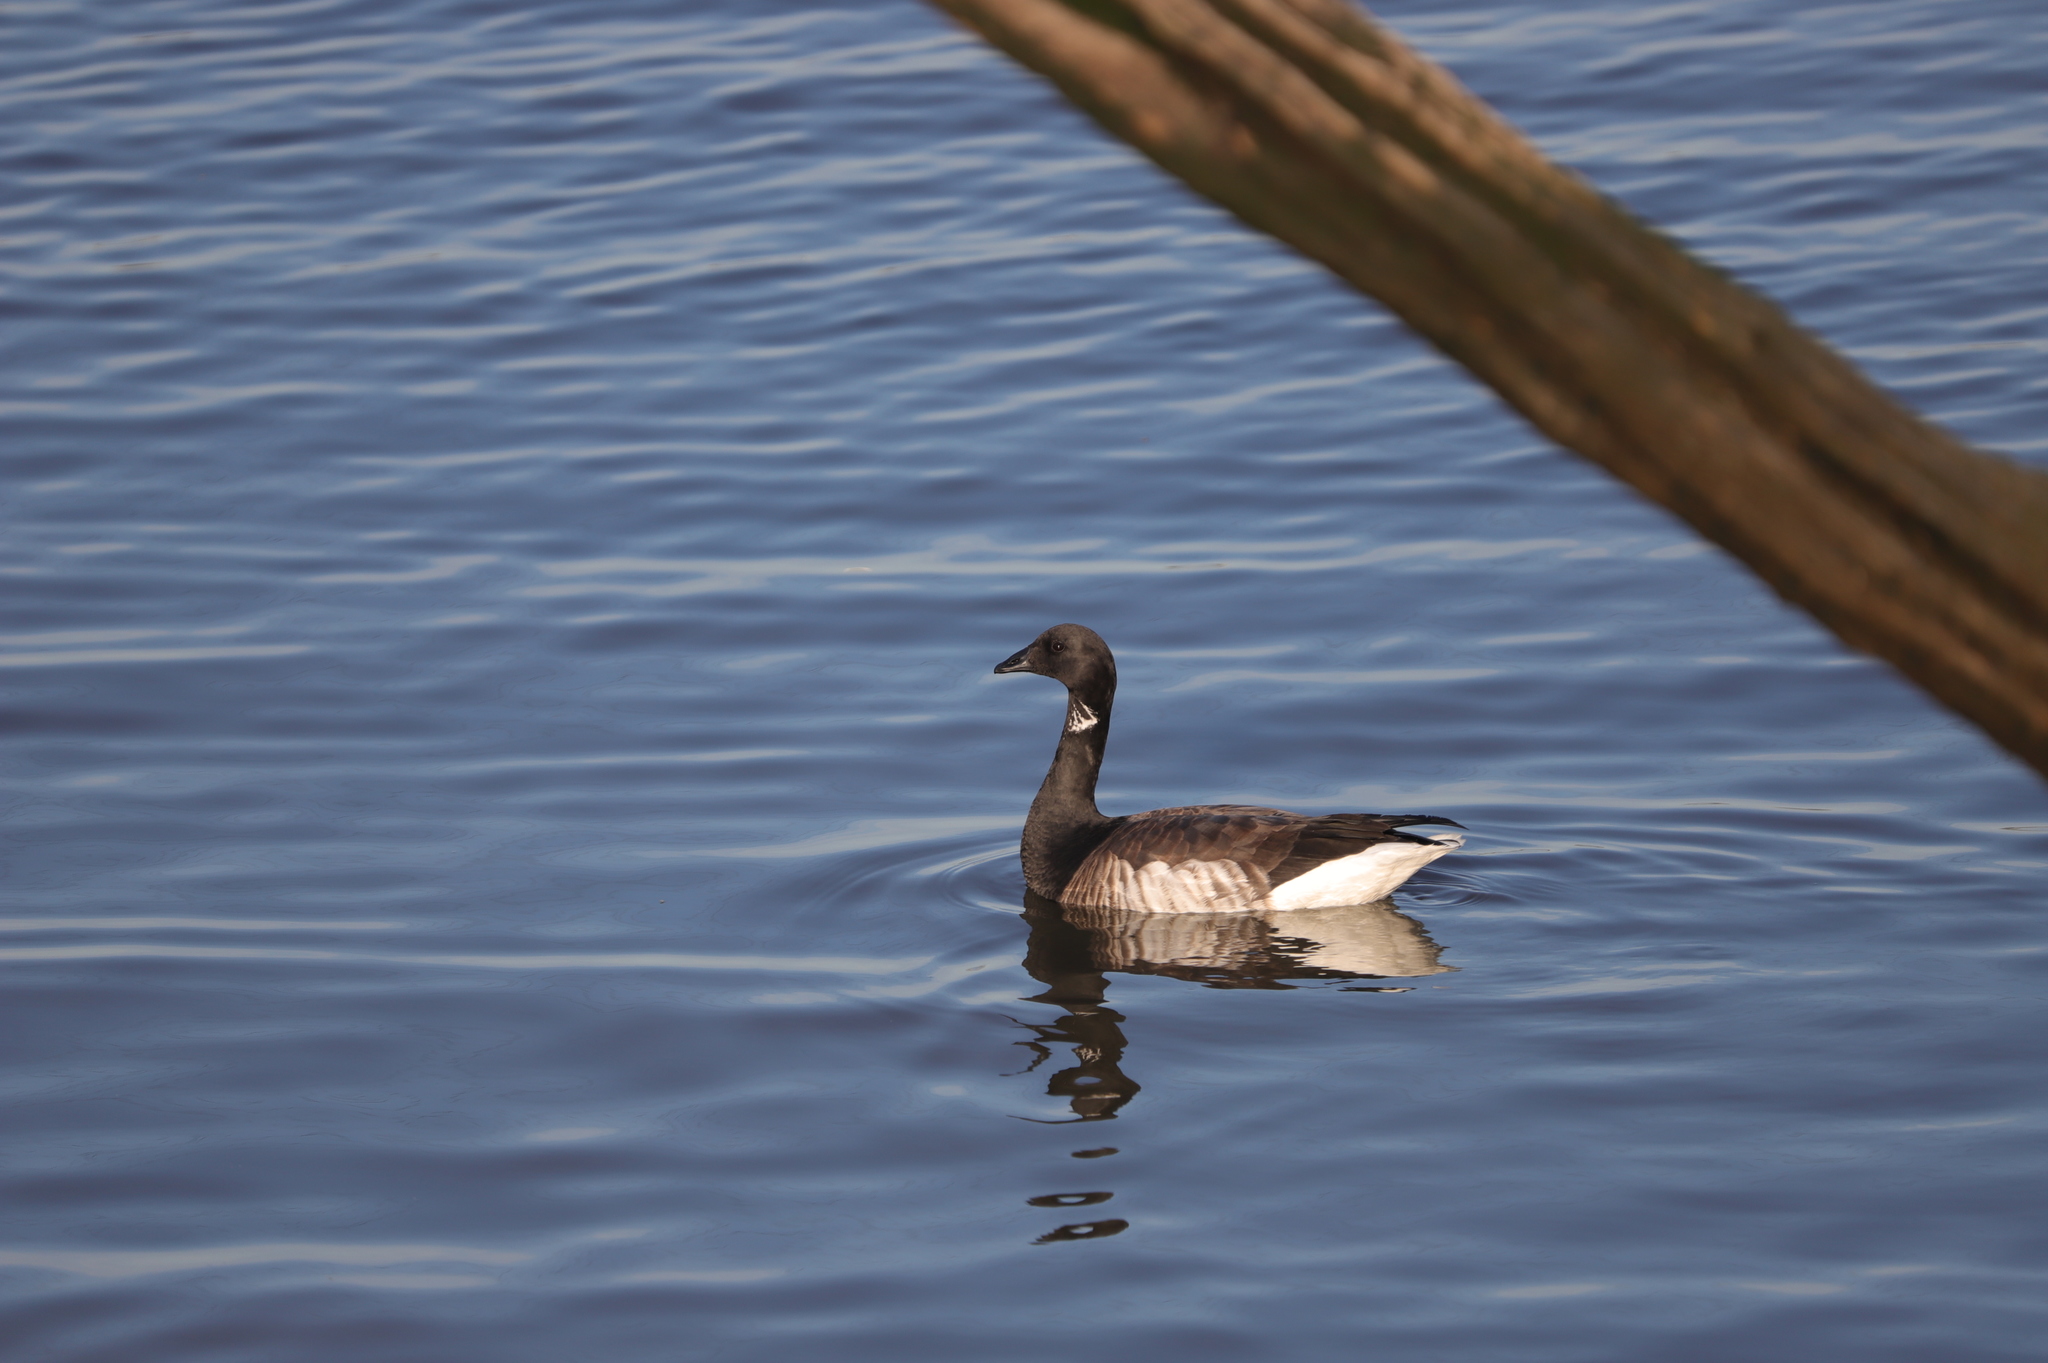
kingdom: Animalia
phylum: Chordata
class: Aves
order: Anseriformes
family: Anatidae
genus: Branta
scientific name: Branta bernicla
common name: Brant goose
